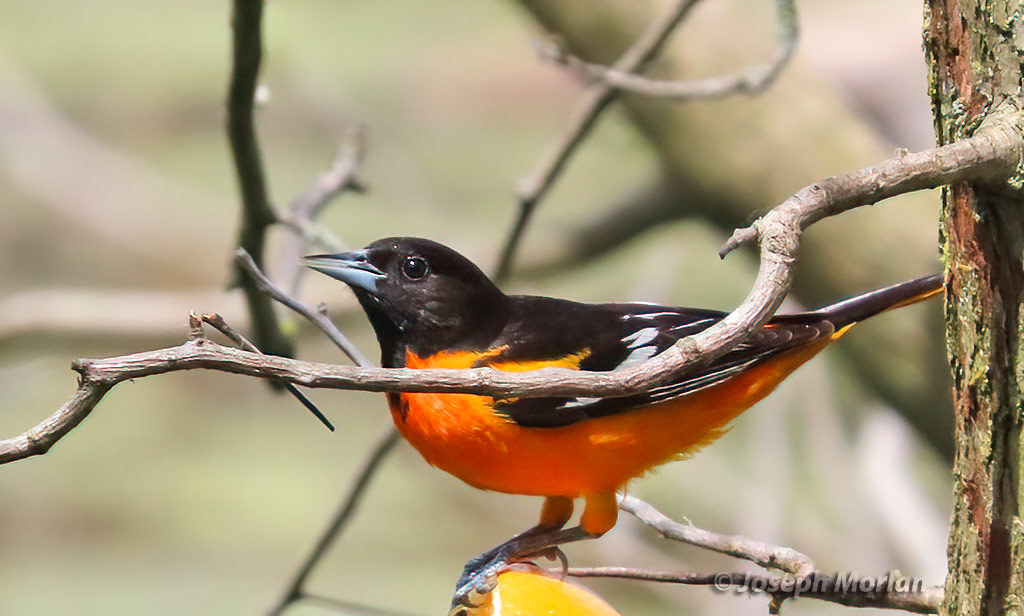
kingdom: Animalia
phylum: Chordata
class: Aves
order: Passeriformes
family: Icteridae
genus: Icterus
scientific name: Icterus galbula
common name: Baltimore oriole
